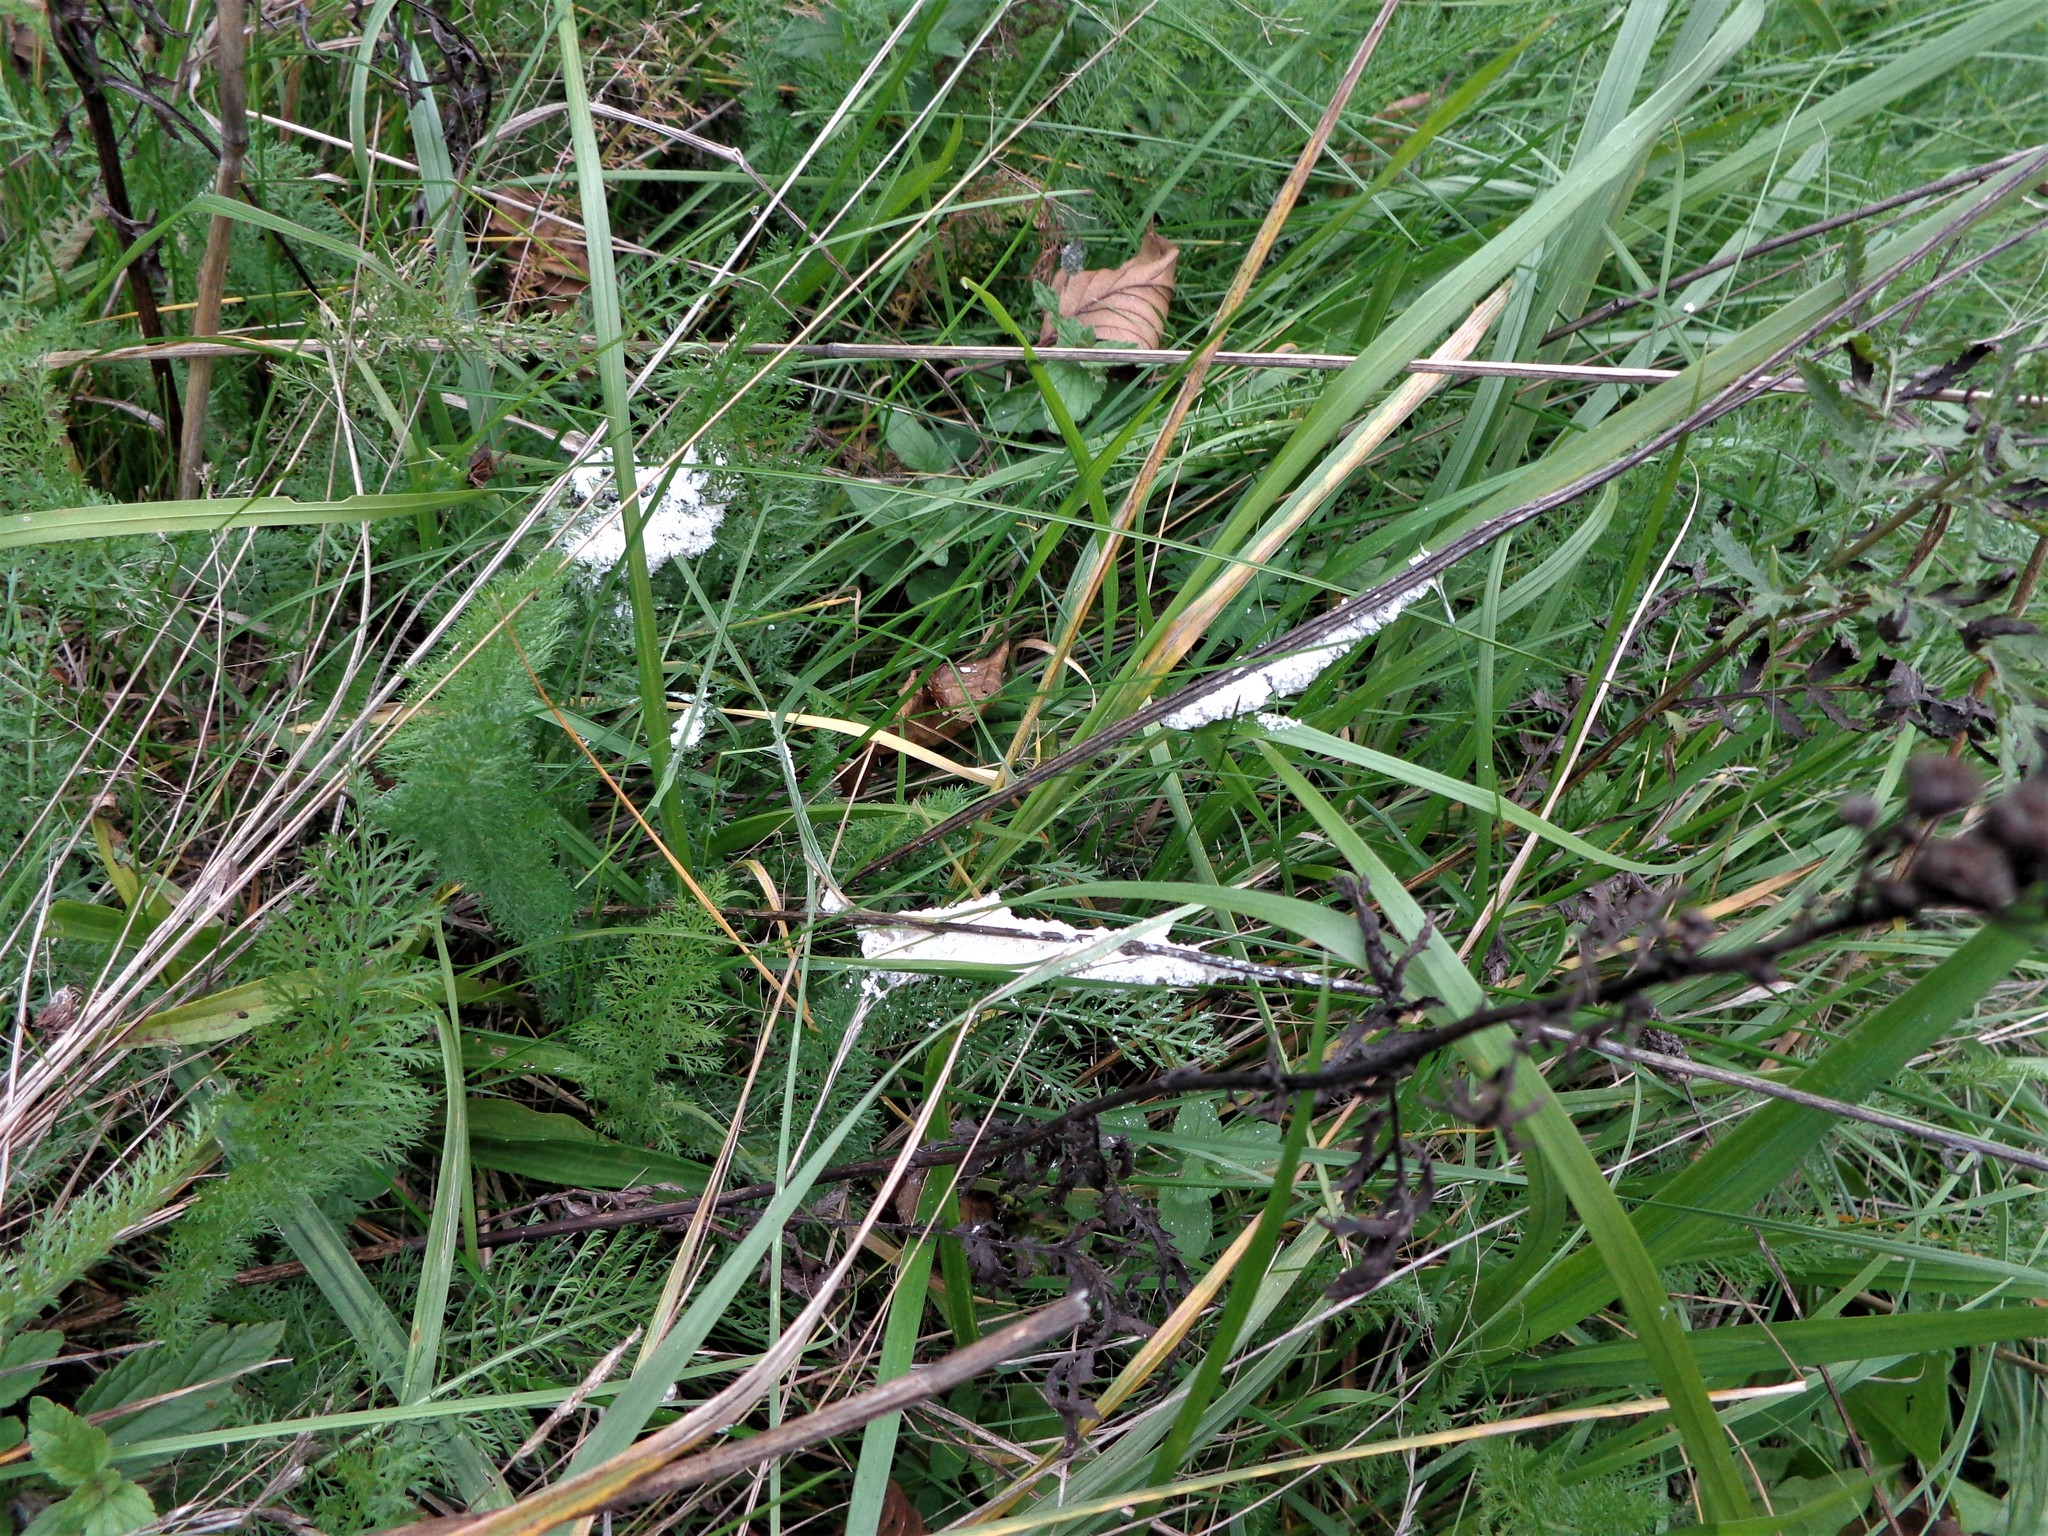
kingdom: Protozoa
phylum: Mycetozoa
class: Myxomycetes
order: Physarales
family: Physaraceae
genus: Didymium
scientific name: Didymium
